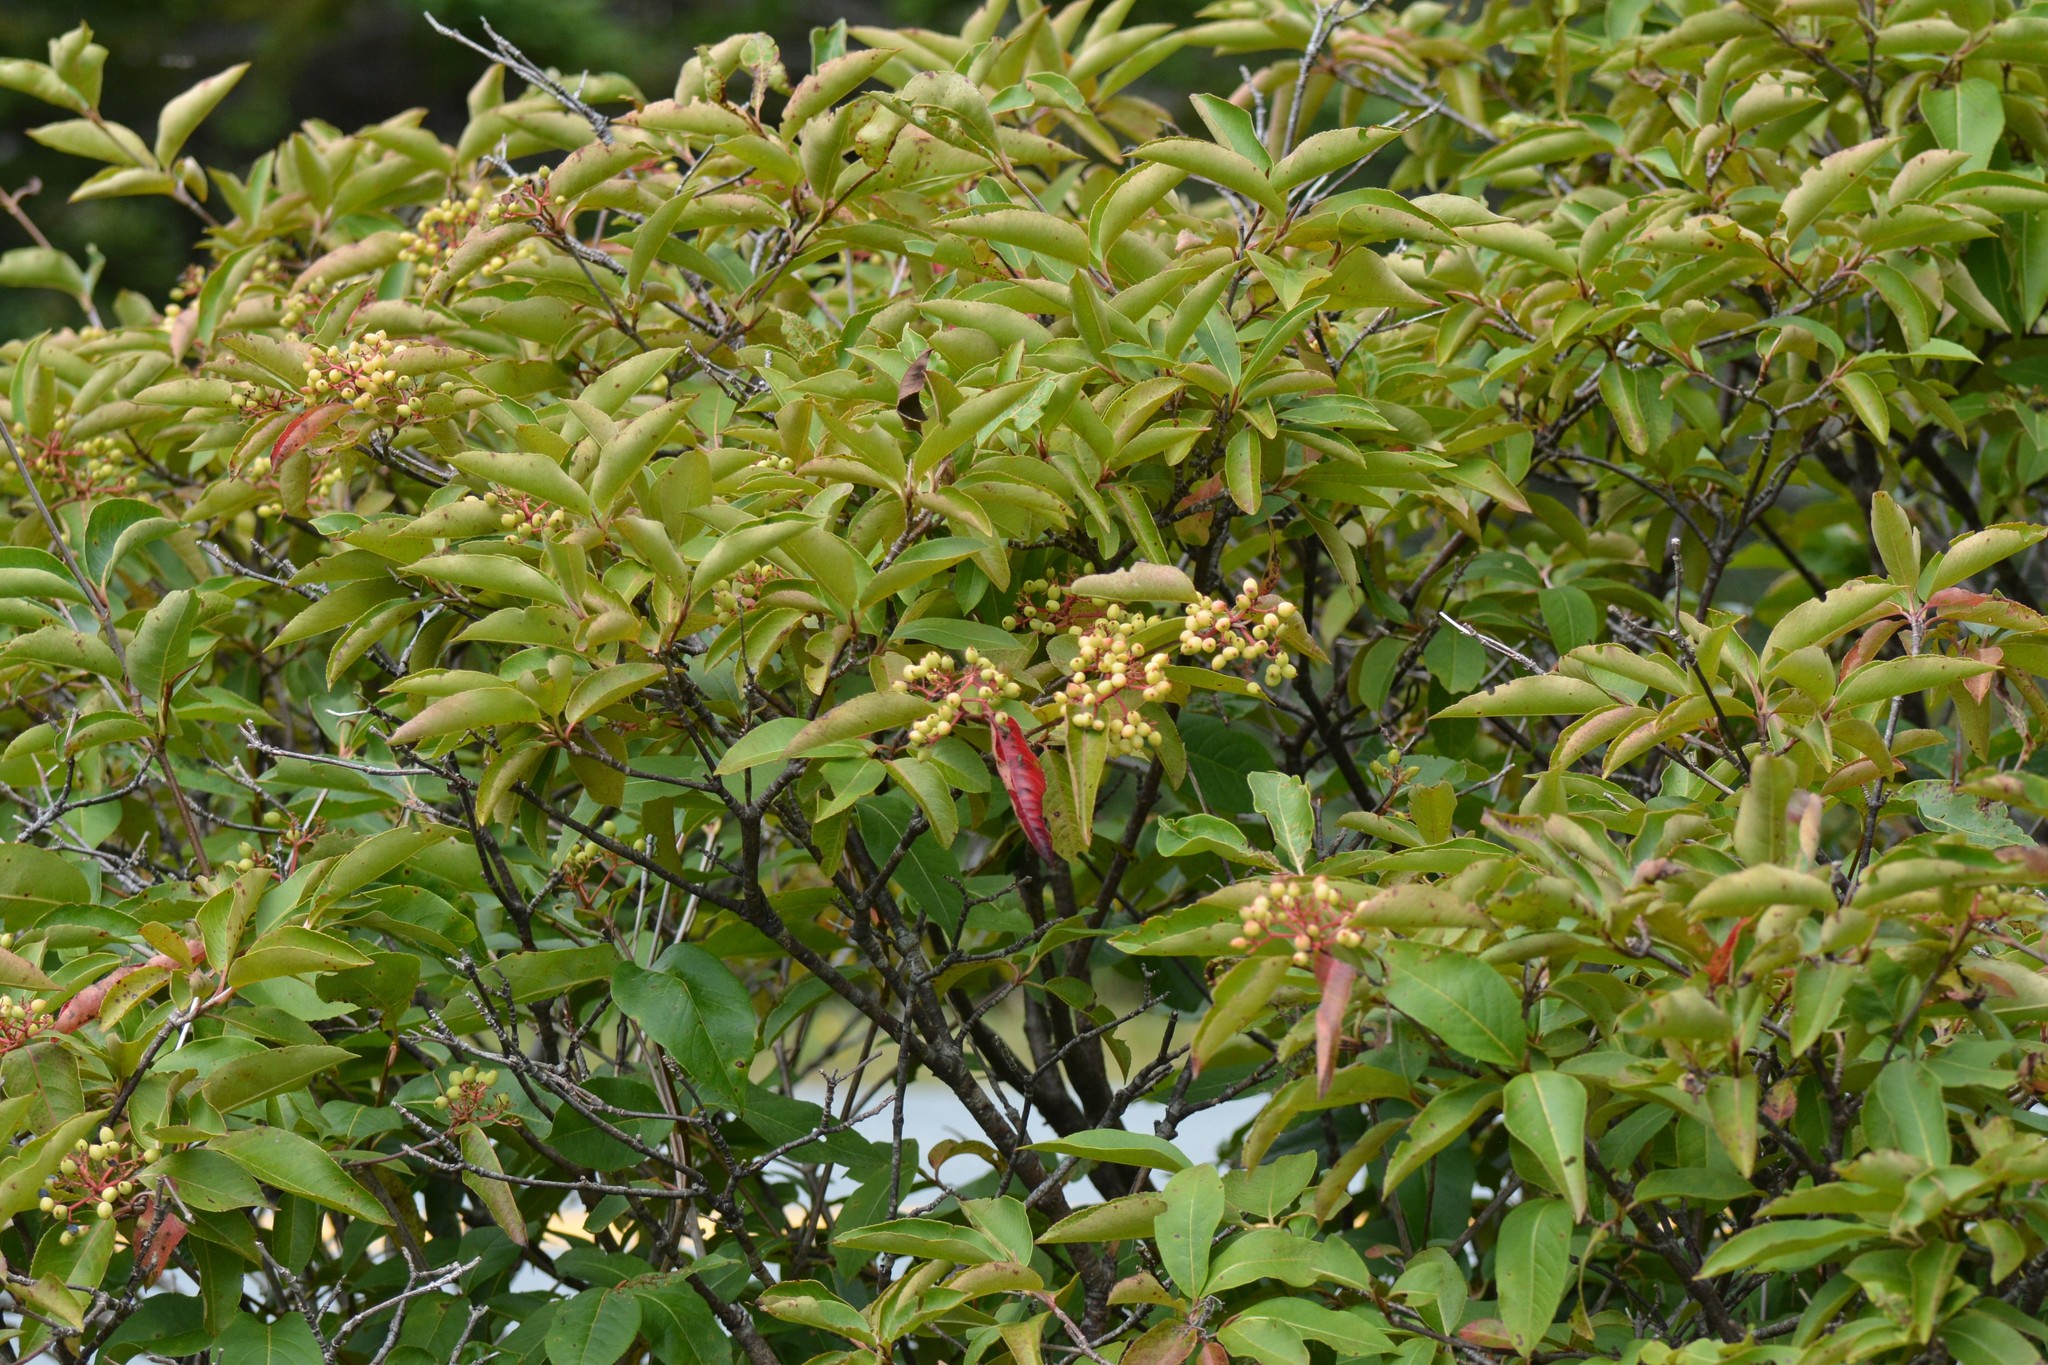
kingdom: Plantae
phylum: Tracheophyta
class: Magnoliopsida
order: Dipsacales
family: Viburnaceae
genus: Viburnum
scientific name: Viburnum cassinoides
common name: Swamp haw
